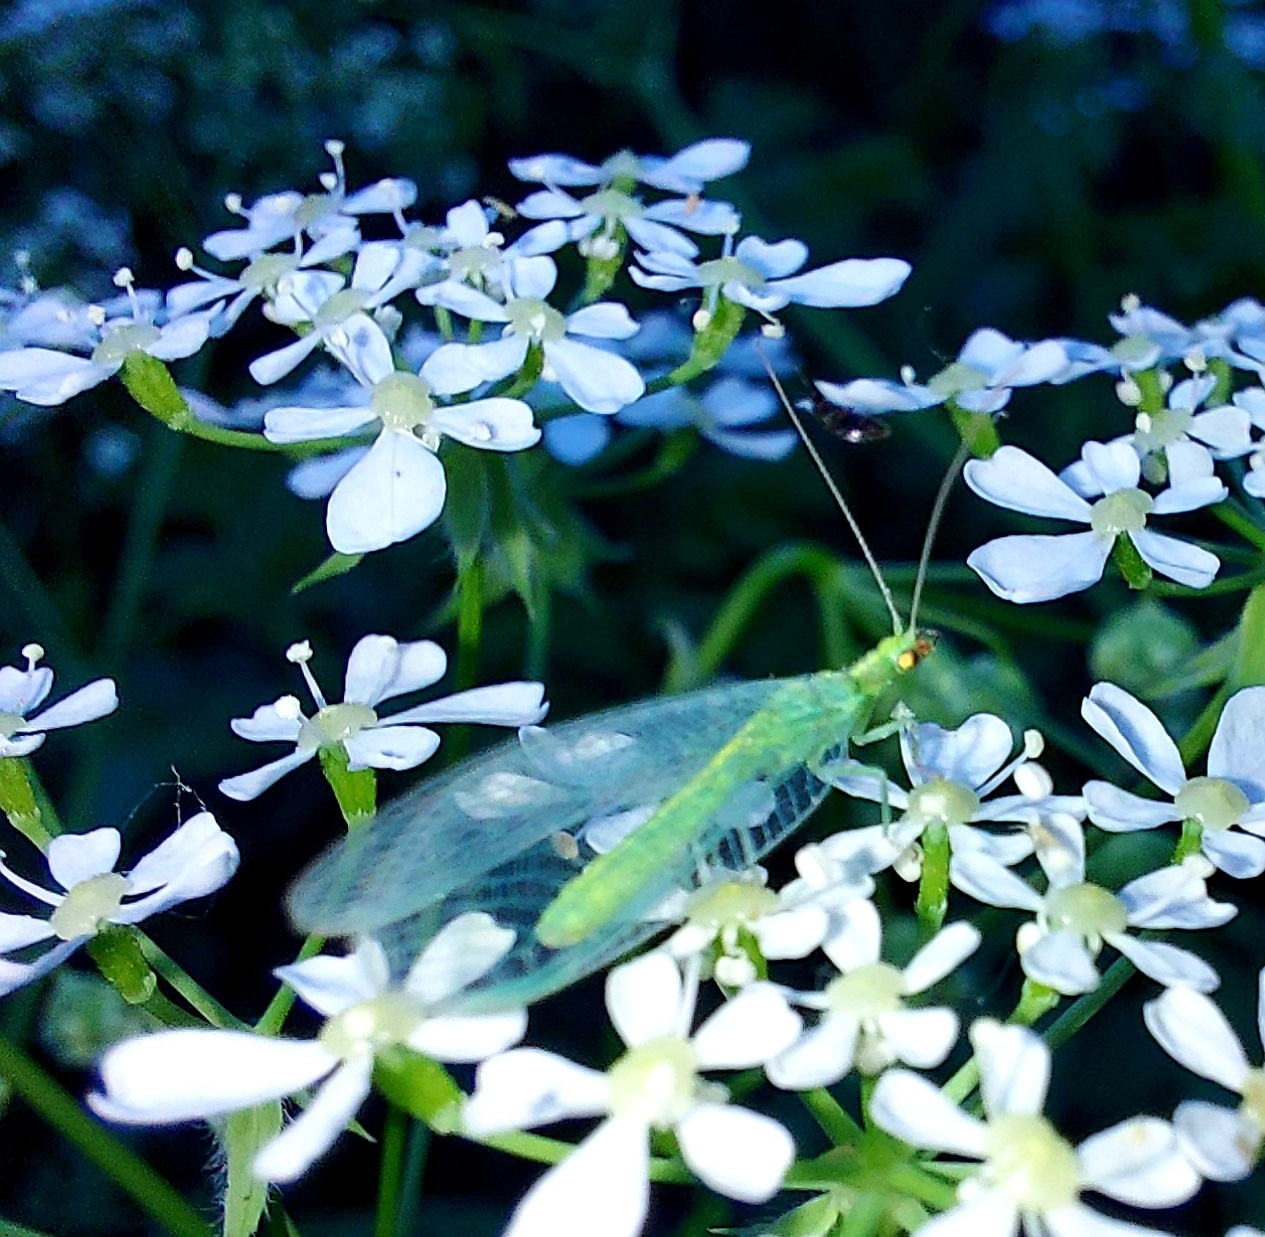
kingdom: Animalia
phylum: Arthropoda
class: Insecta
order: Neuroptera
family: Chrysopidae
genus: Chrysoperla
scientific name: Chrysoperla
